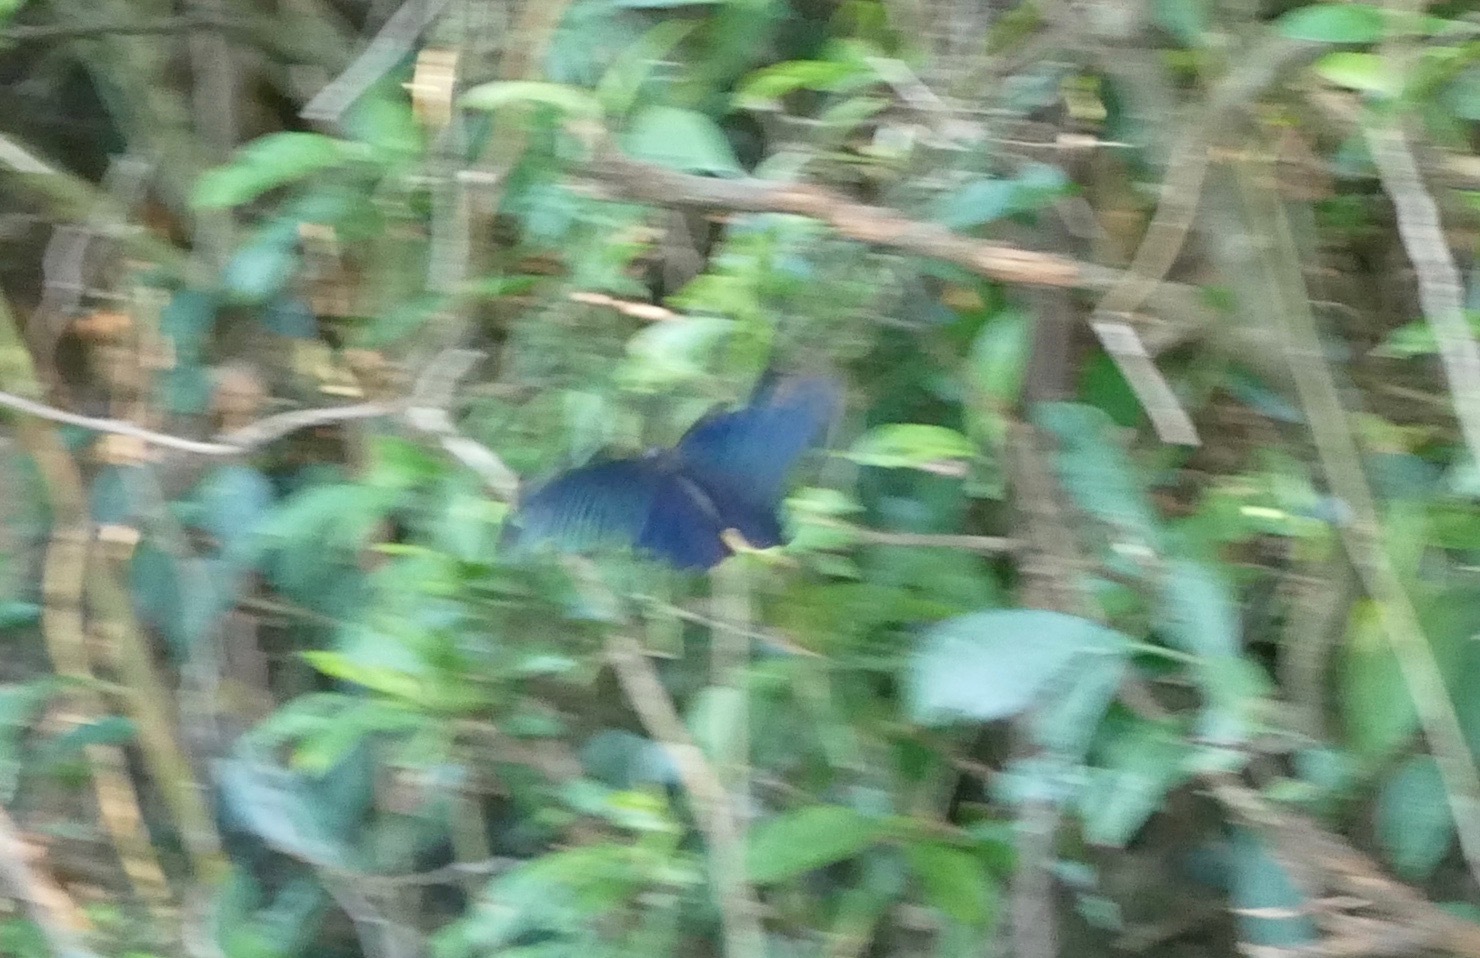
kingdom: Animalia
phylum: Arthropoda
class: Insecta
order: Lepidoptera
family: Papilionidae
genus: Papilio
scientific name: Papilio protenor
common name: Spangle
